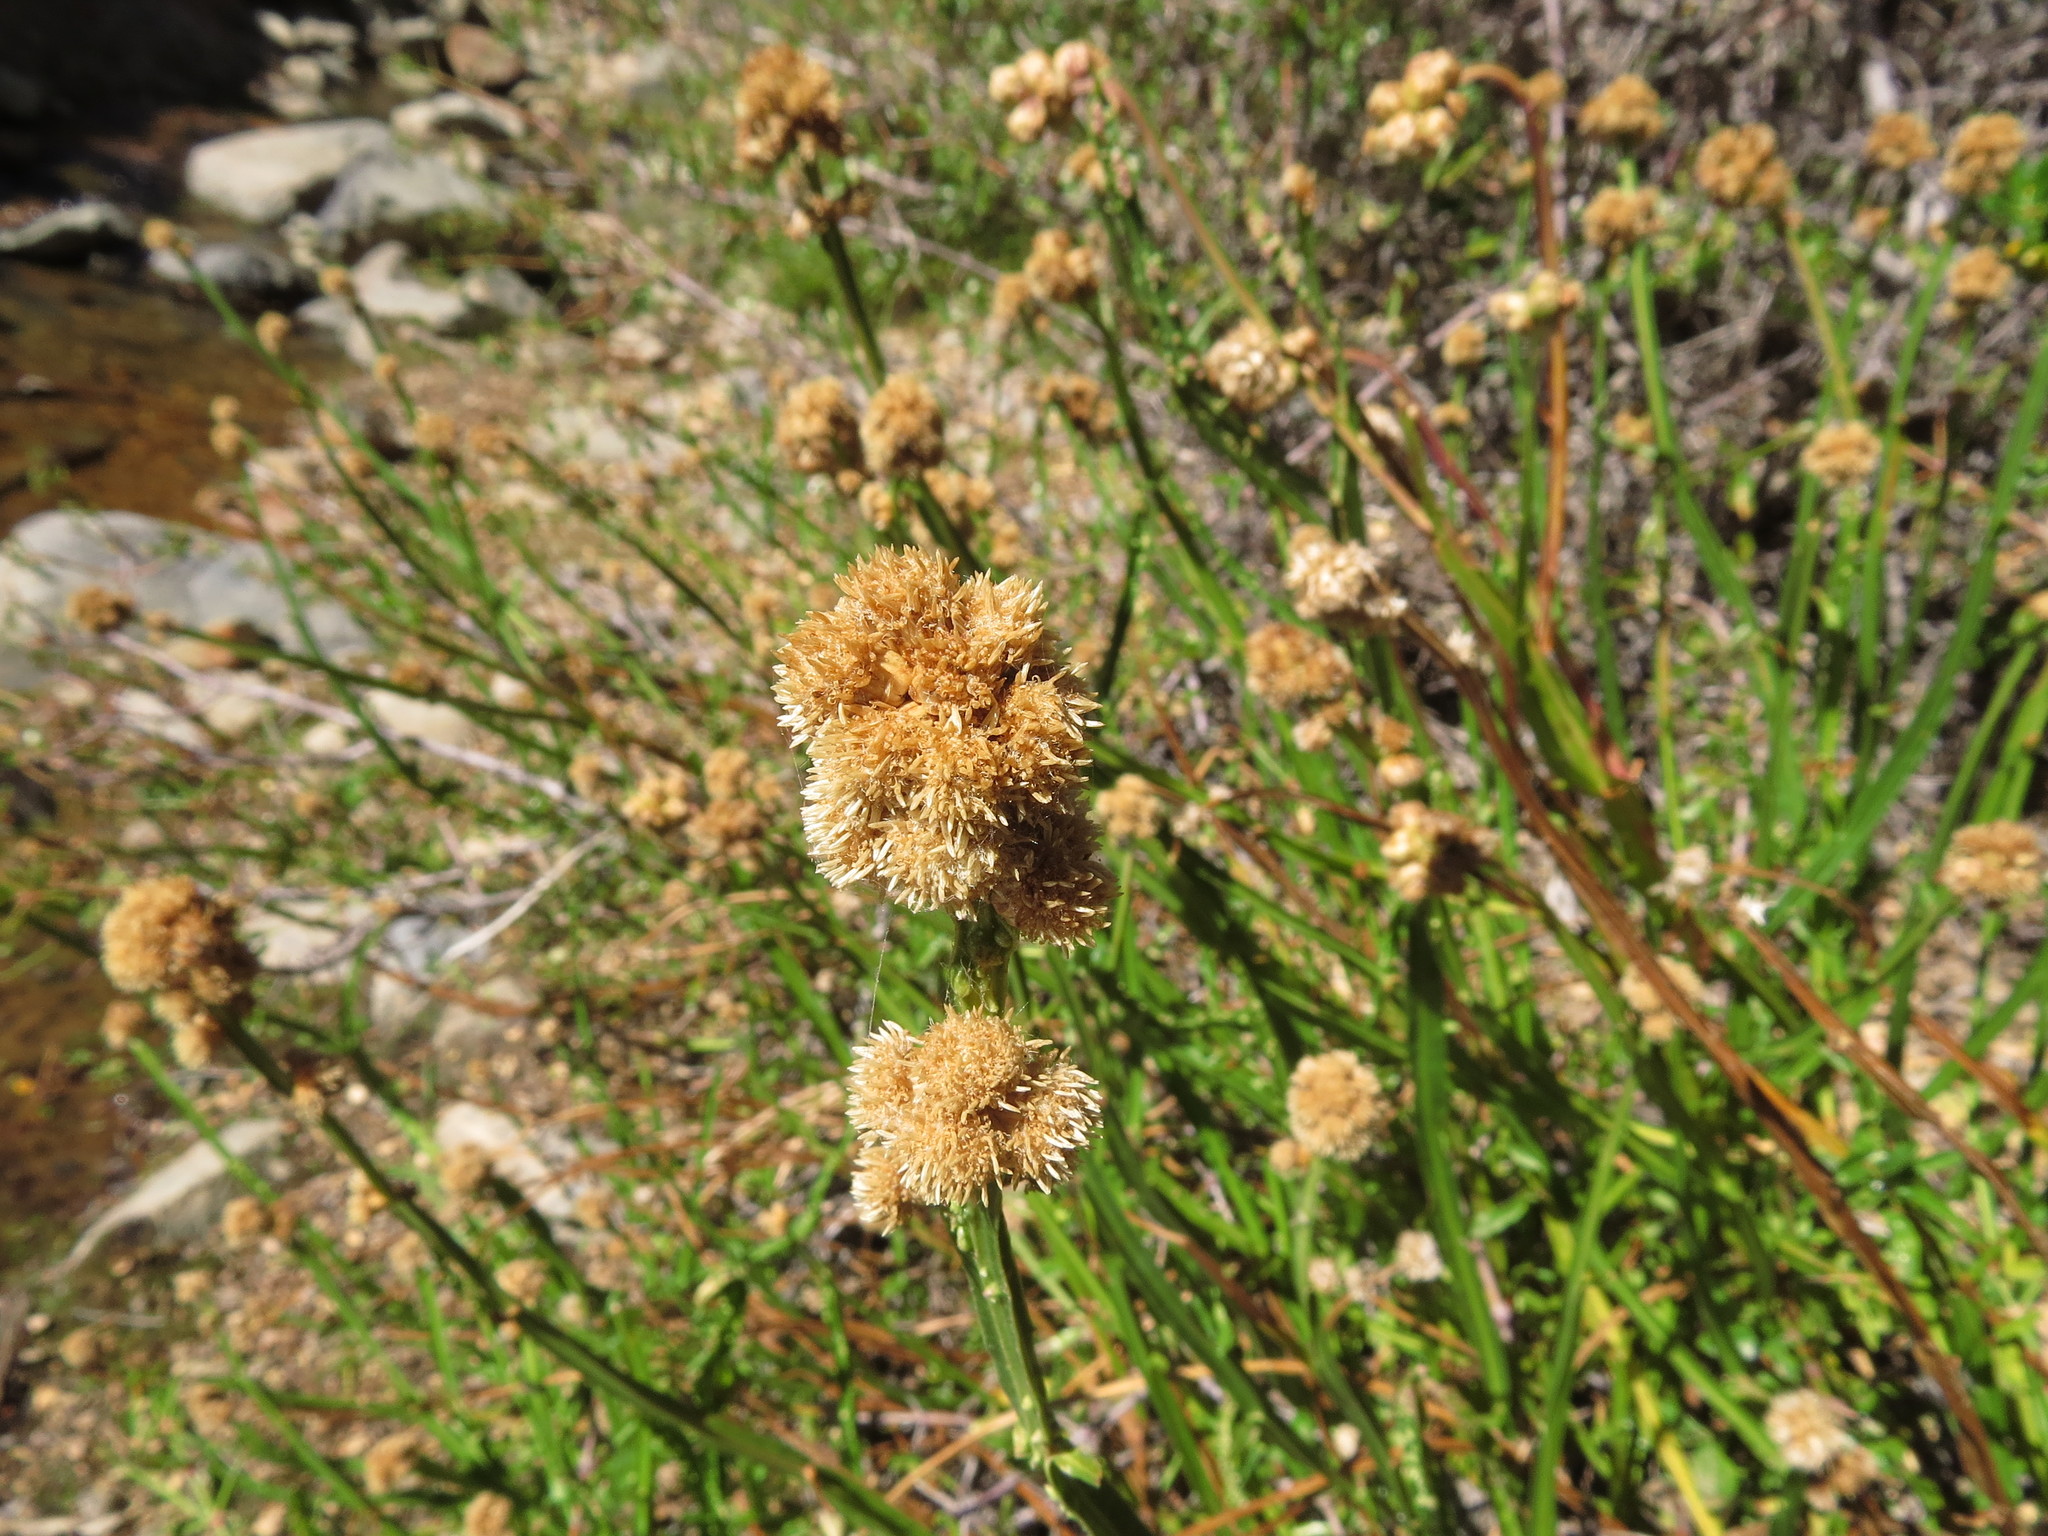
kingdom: Plantae
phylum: Tracheophyta
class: Magnoliopsida
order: Asterales
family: Asteraceae
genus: Baccharis
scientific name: Baccharis sagittalis
